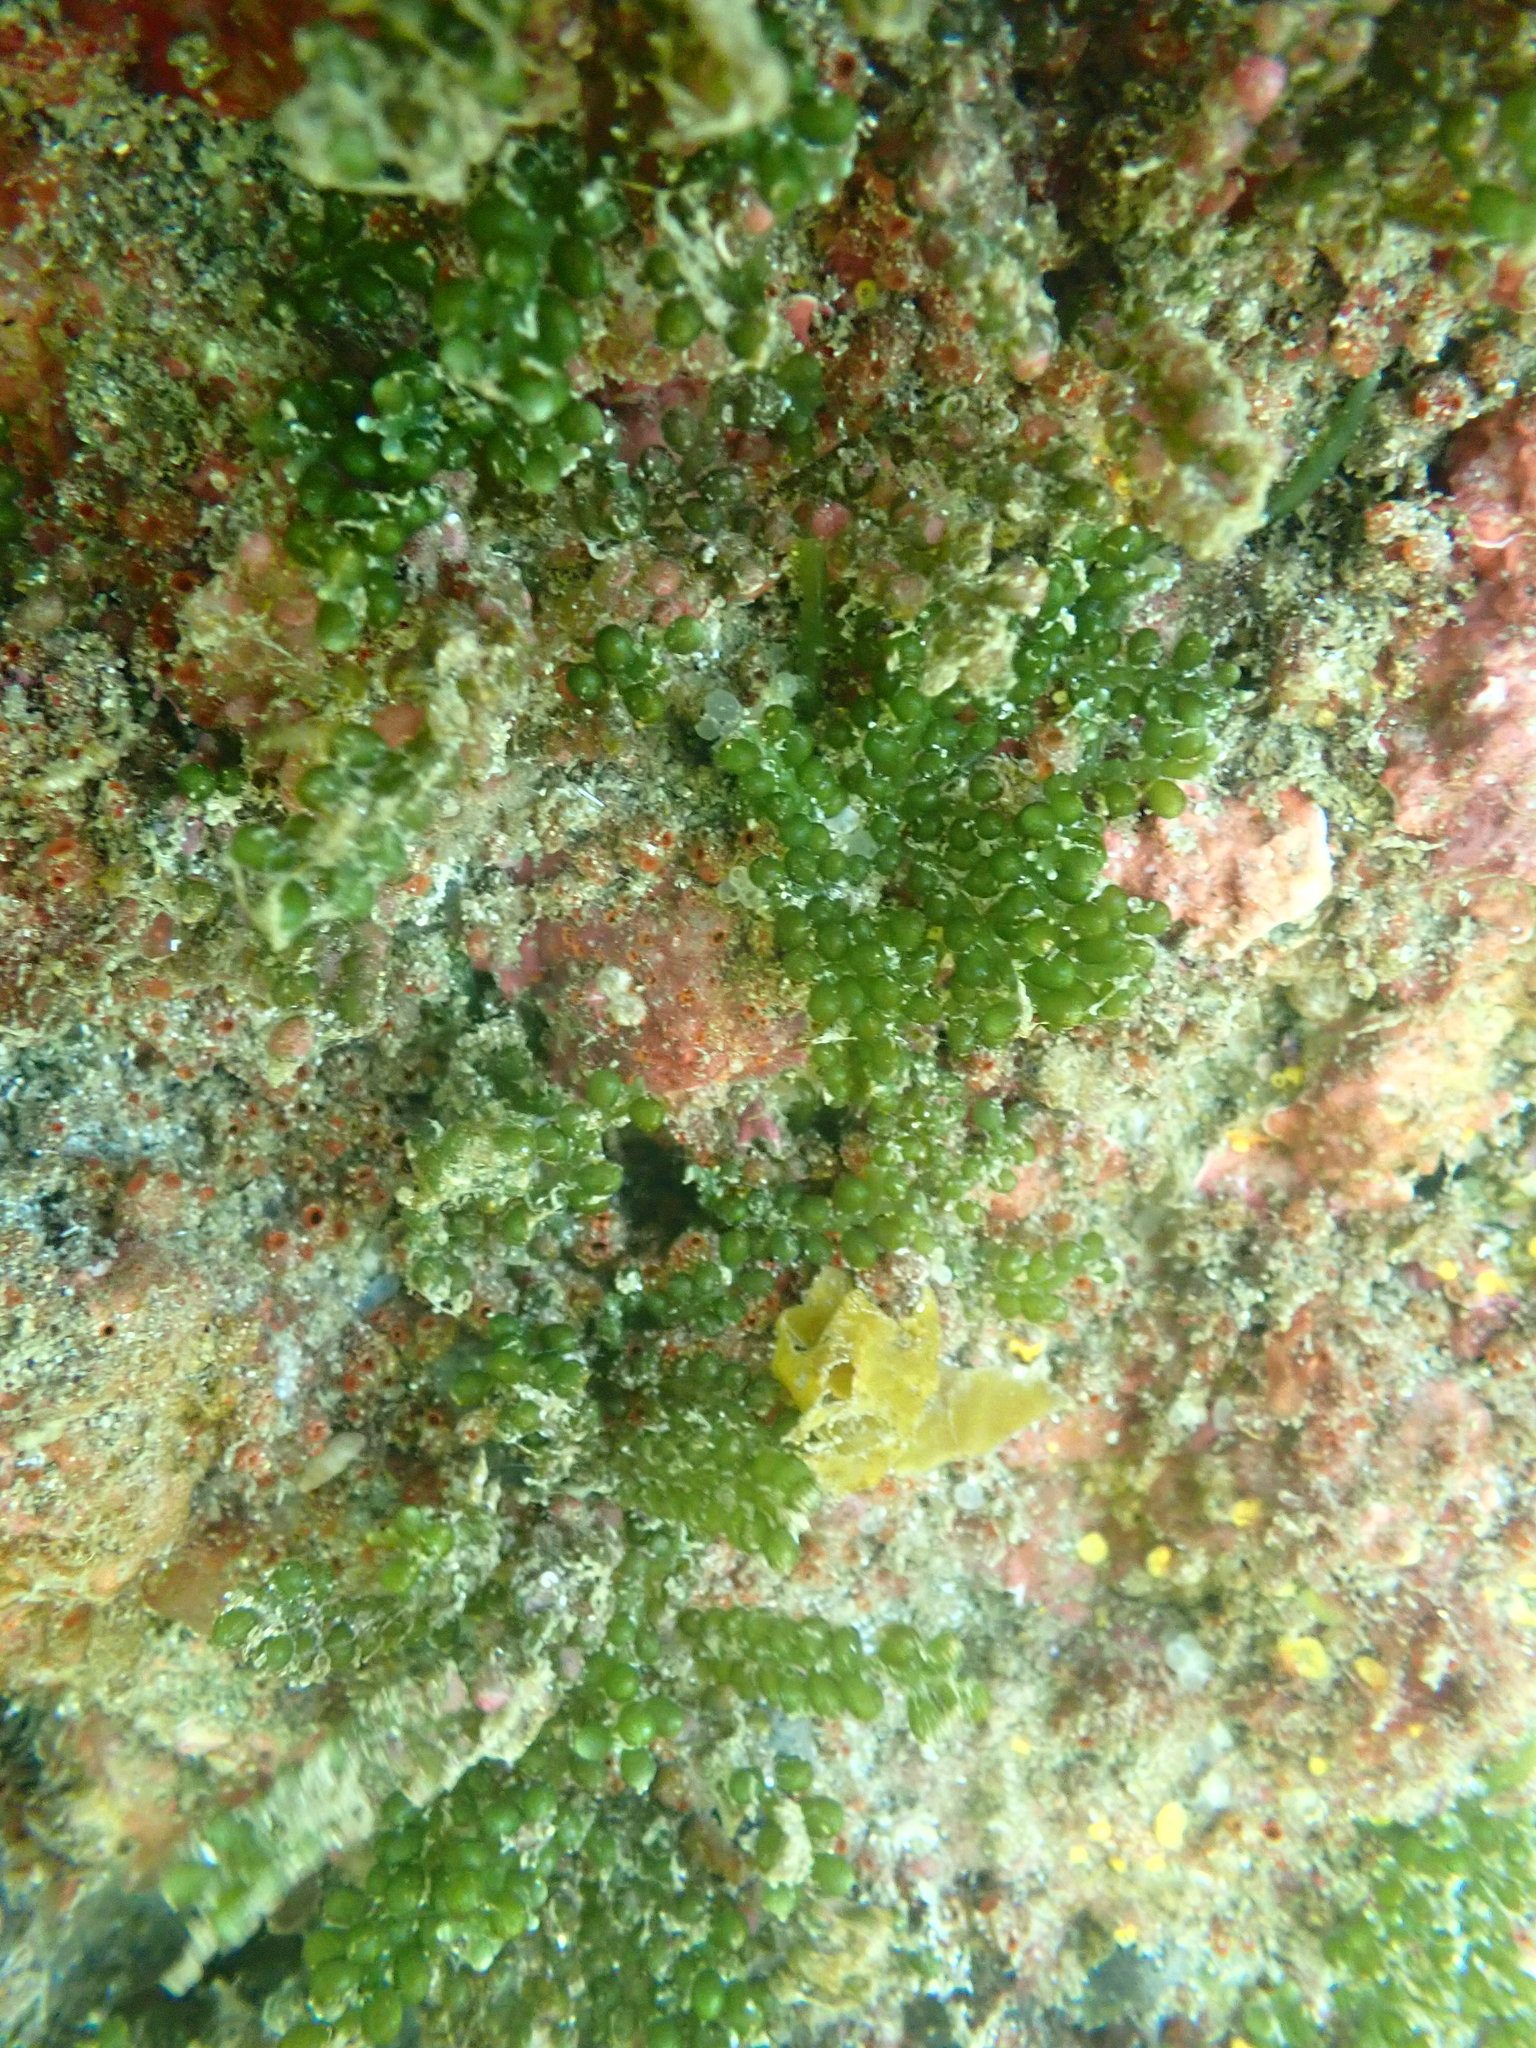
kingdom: Plantae
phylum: Chlorophyta
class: Ulvophyceae
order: Bryopsidales
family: Caulerpaceae
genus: Caulerpa
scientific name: Caulerpa geminata
